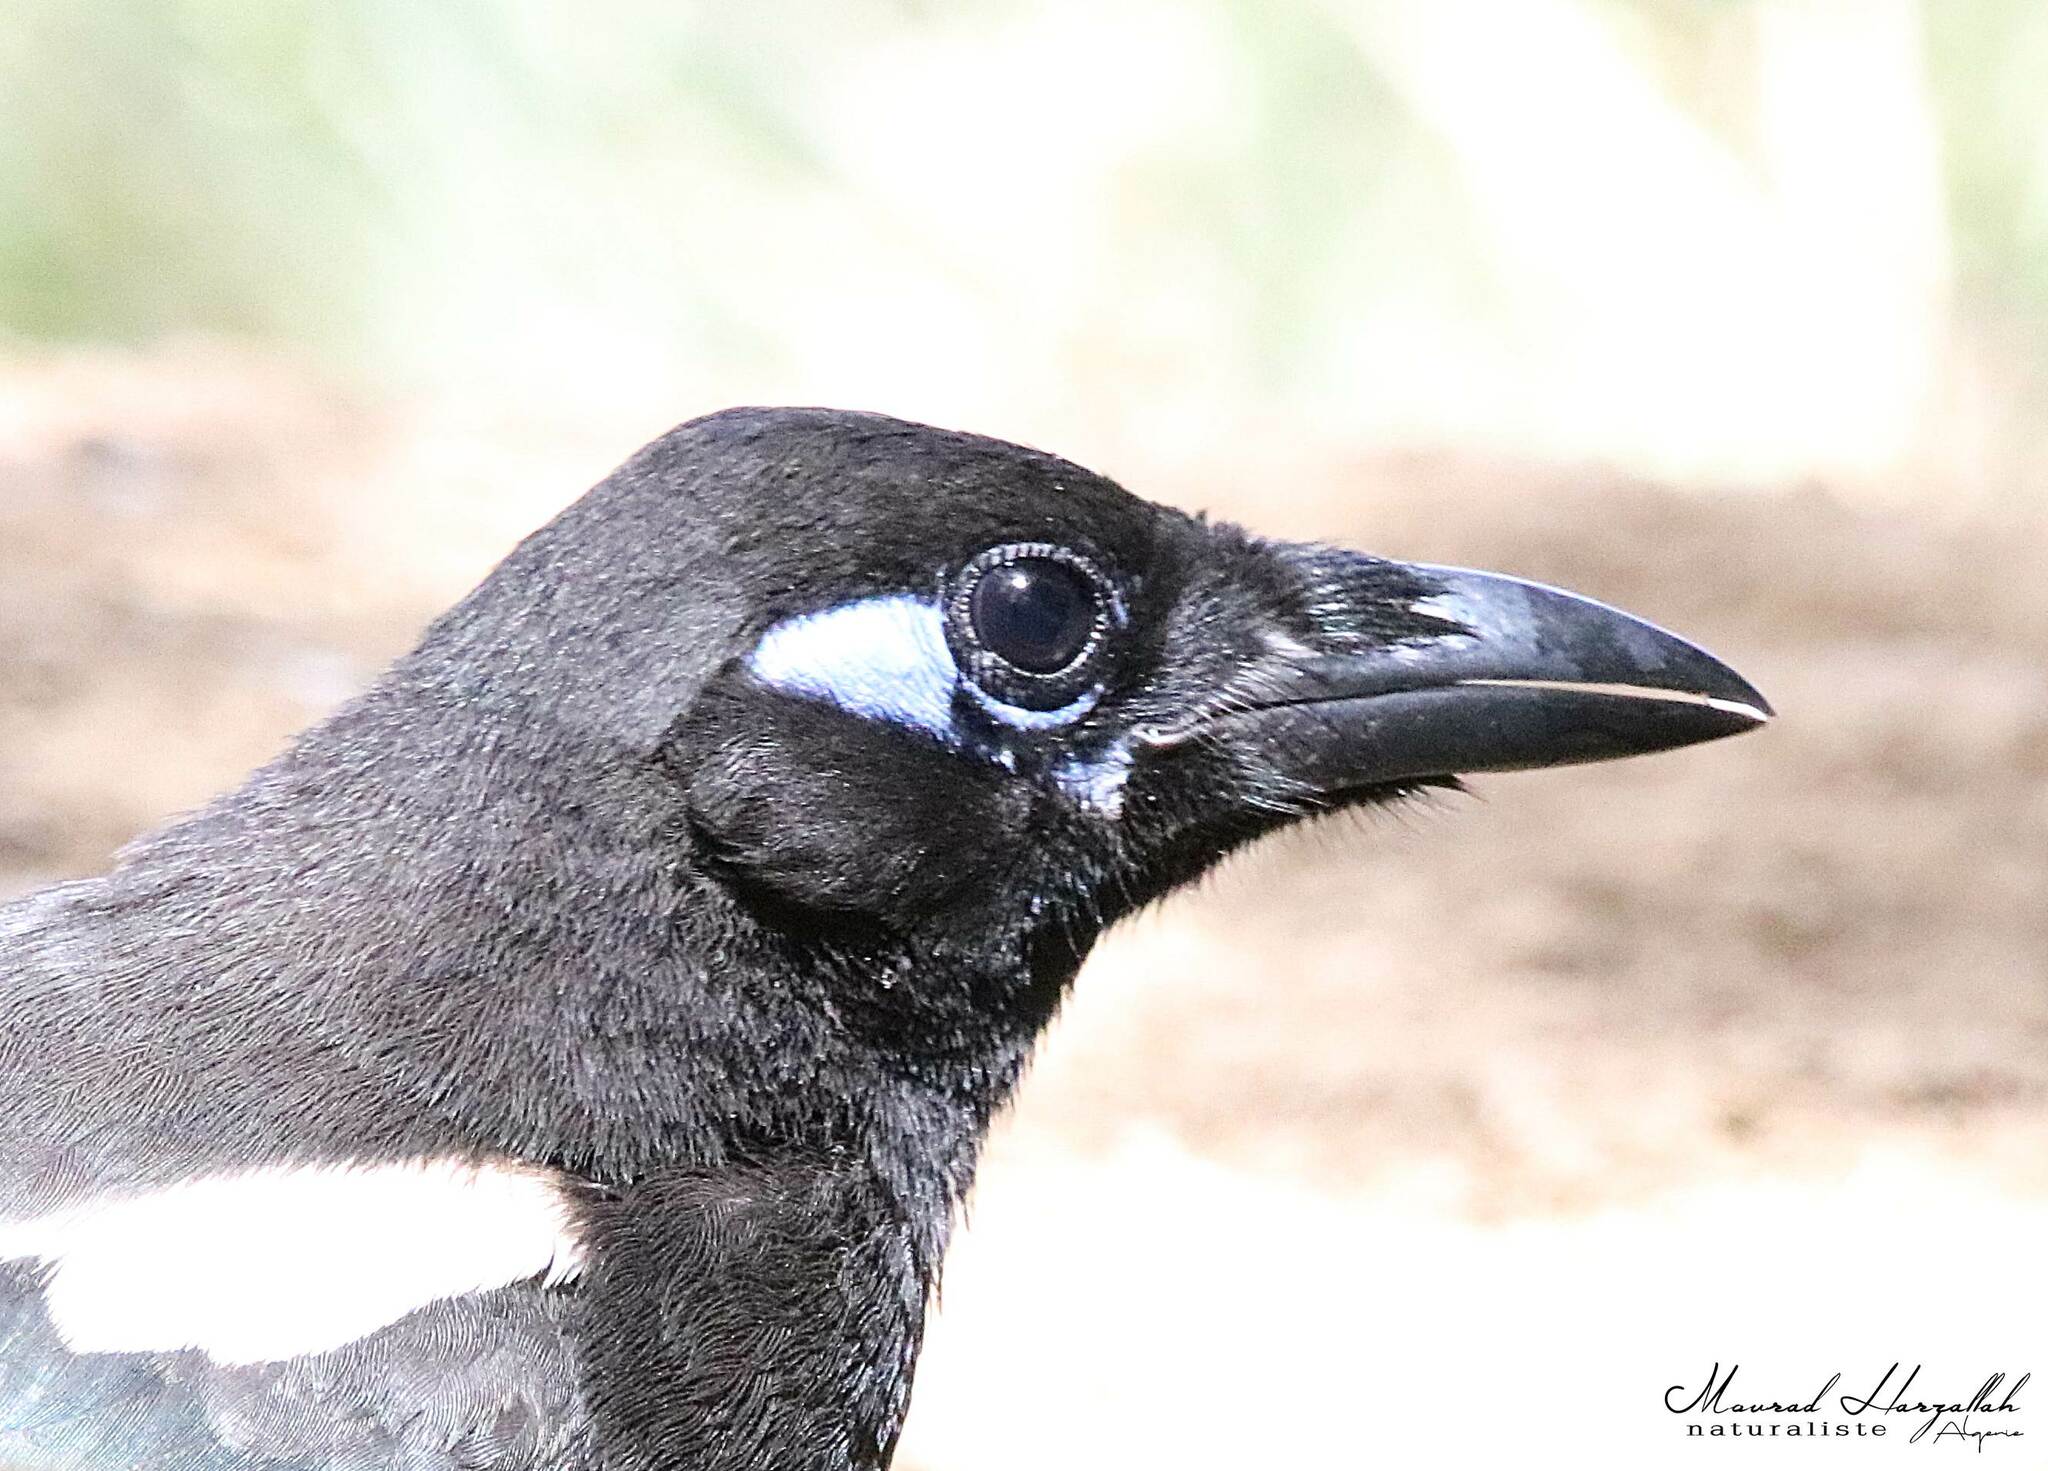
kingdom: Animalia
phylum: Chordata
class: Aves
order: Passeriformes
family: Corvidae
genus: Pica
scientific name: Pica mauritanica
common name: Maghreb magpie
